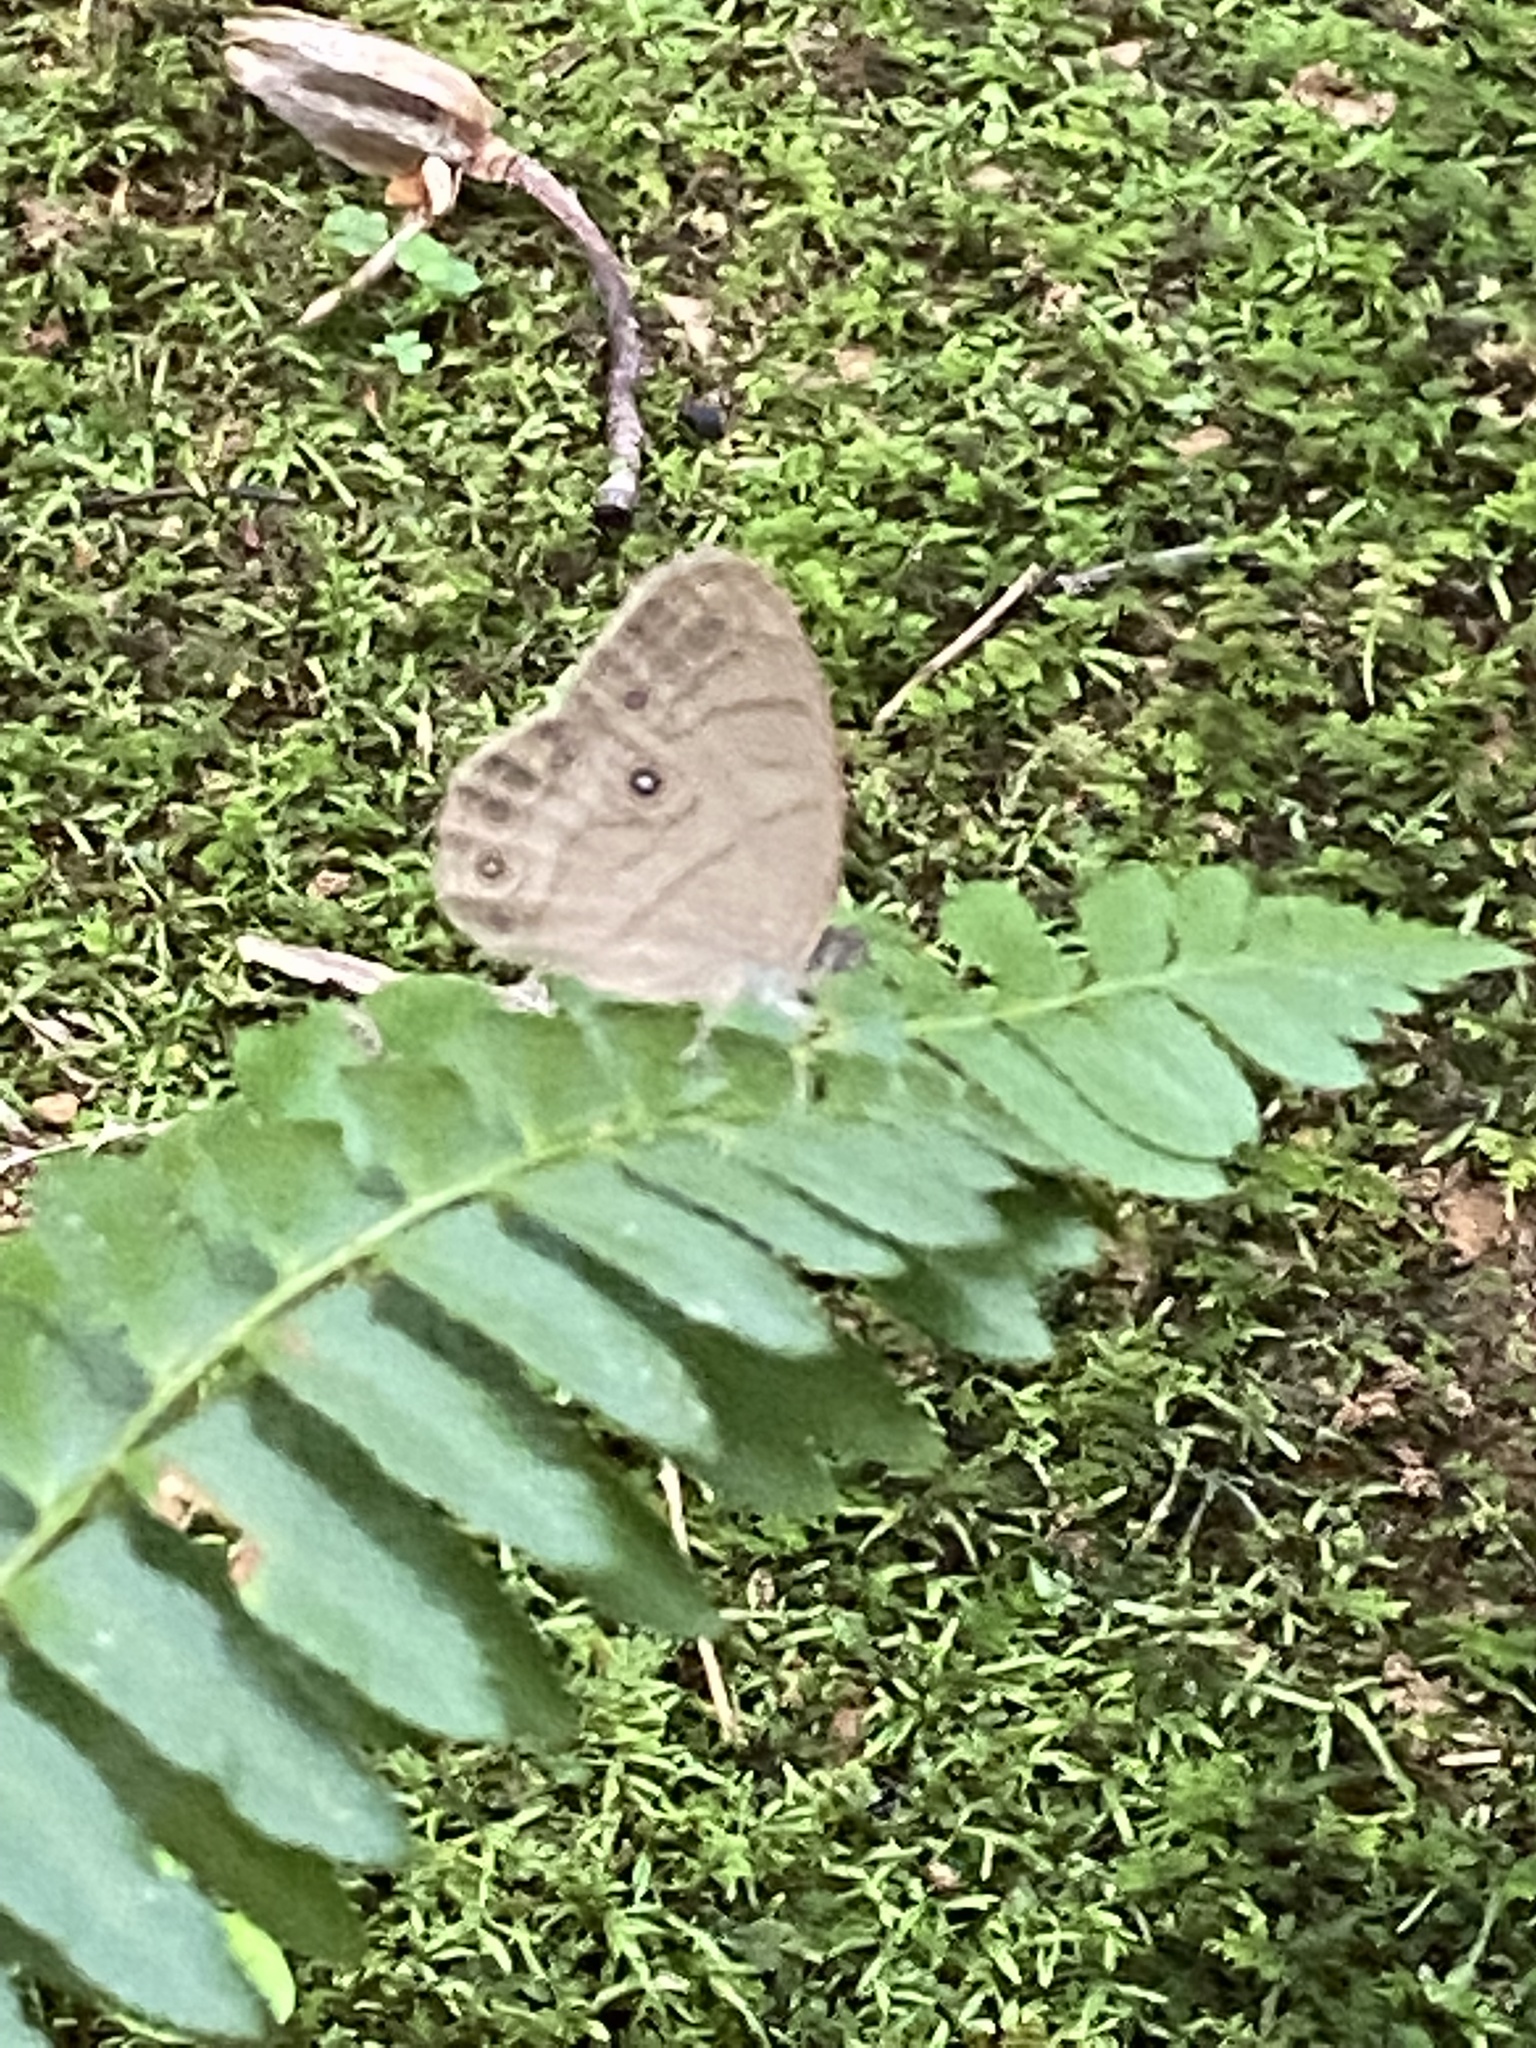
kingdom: Animalia
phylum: Arthropoda
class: Insecta
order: Lepidoptera
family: Nymphalidae
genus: Lethe
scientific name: Lethe eurydice
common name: Eyed brown
